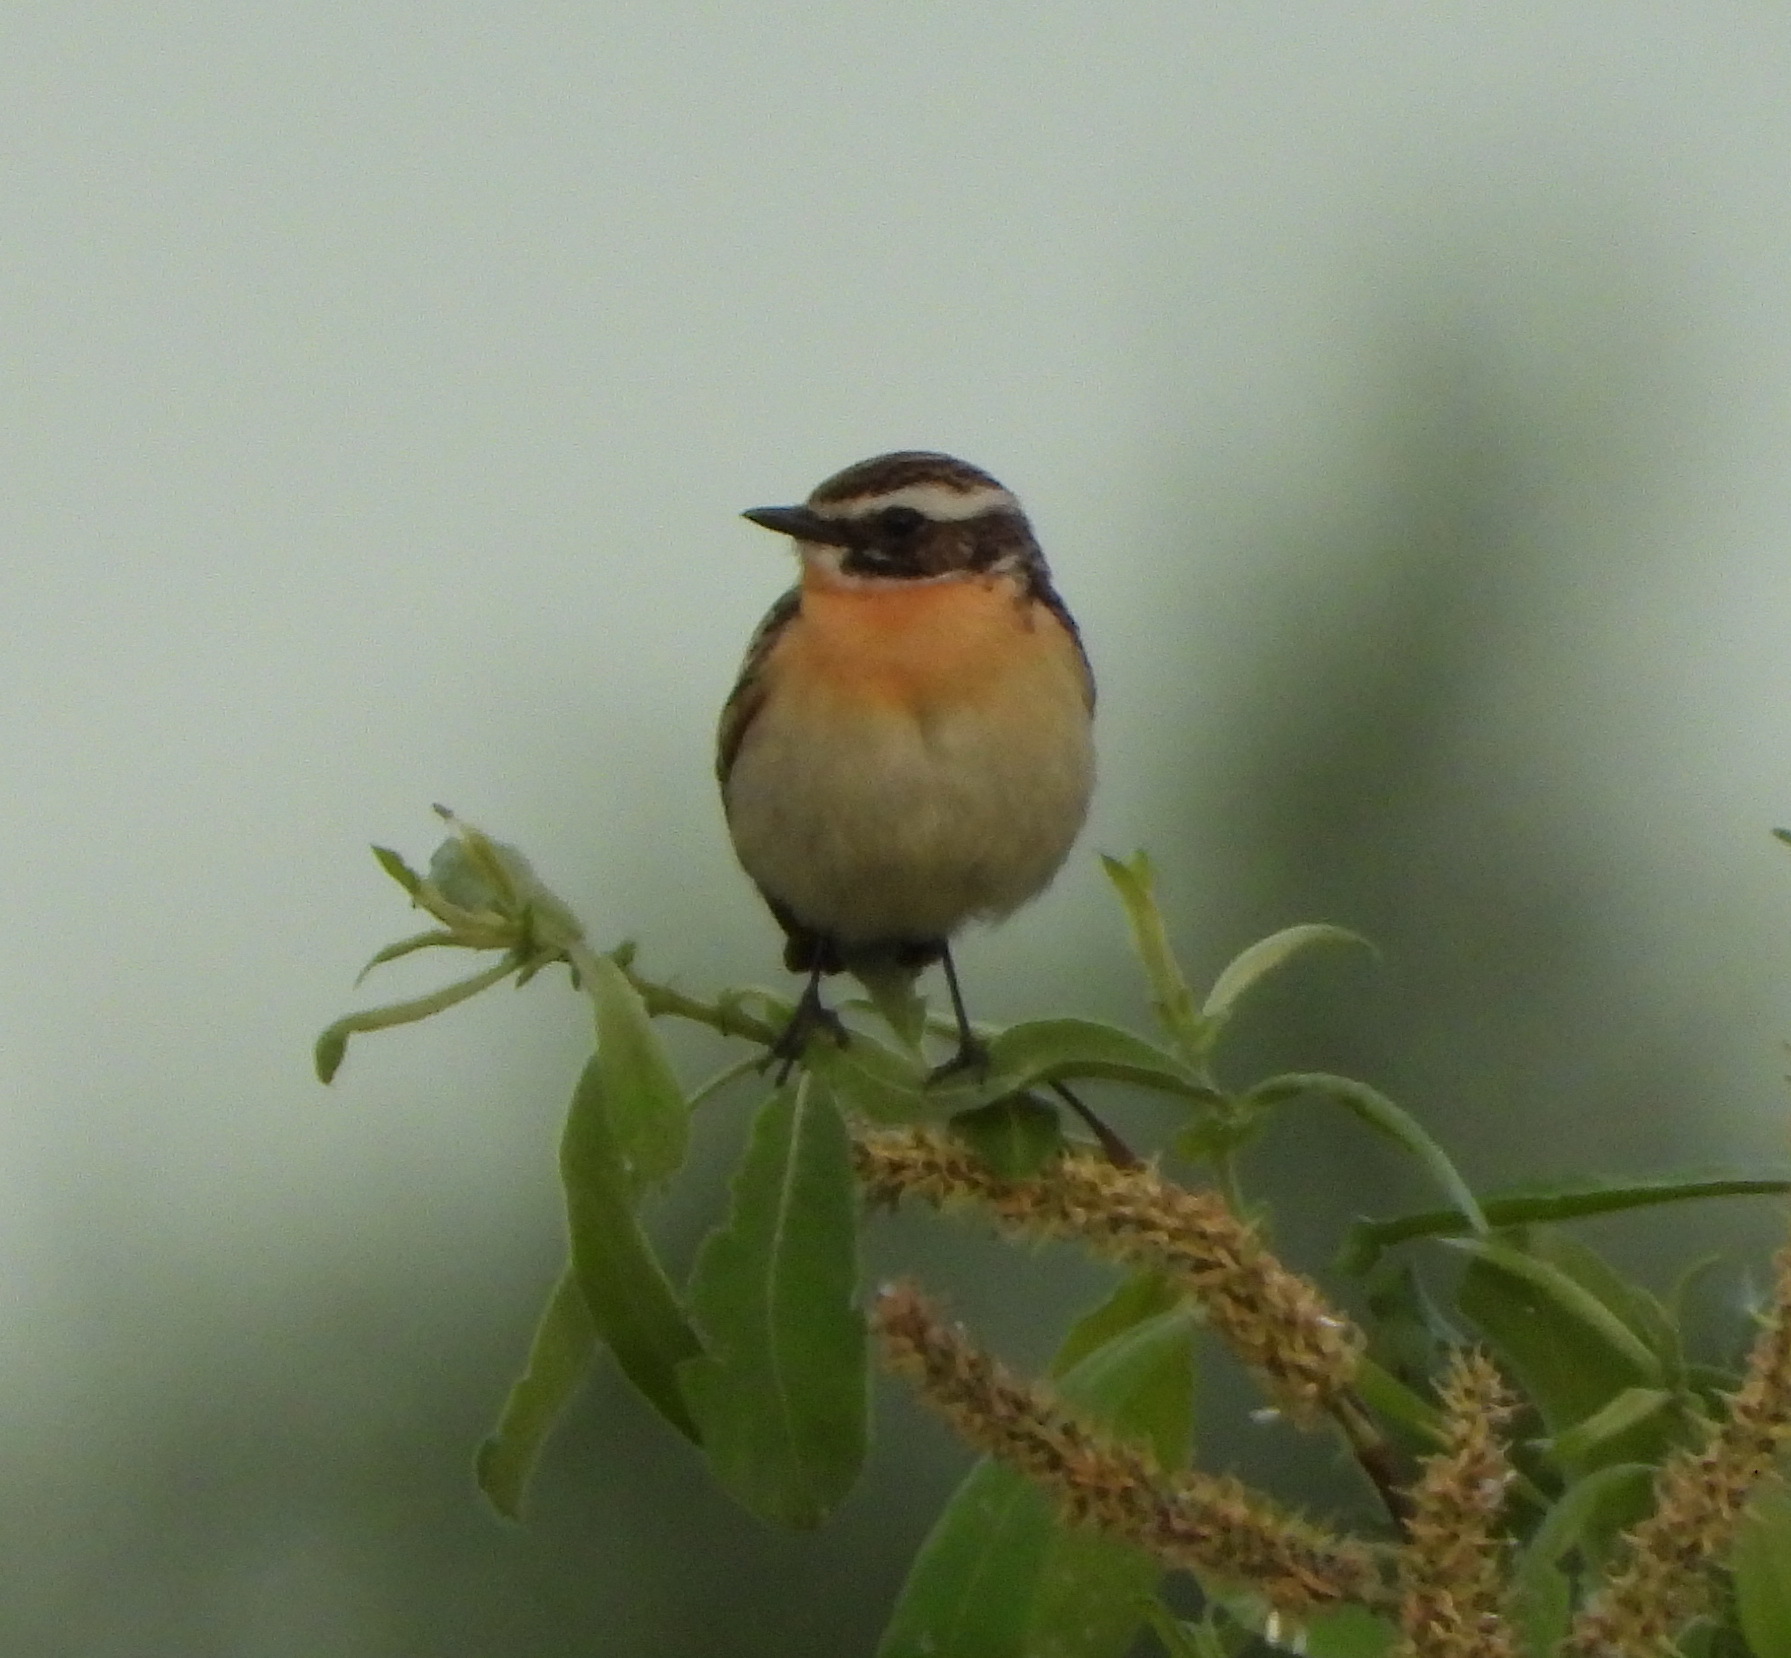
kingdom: Animalia
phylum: Chordata
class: Aves
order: Passeriformes
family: Muscicapidae
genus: Saxicola
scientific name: Saxicola rubetra
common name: Whinchat
